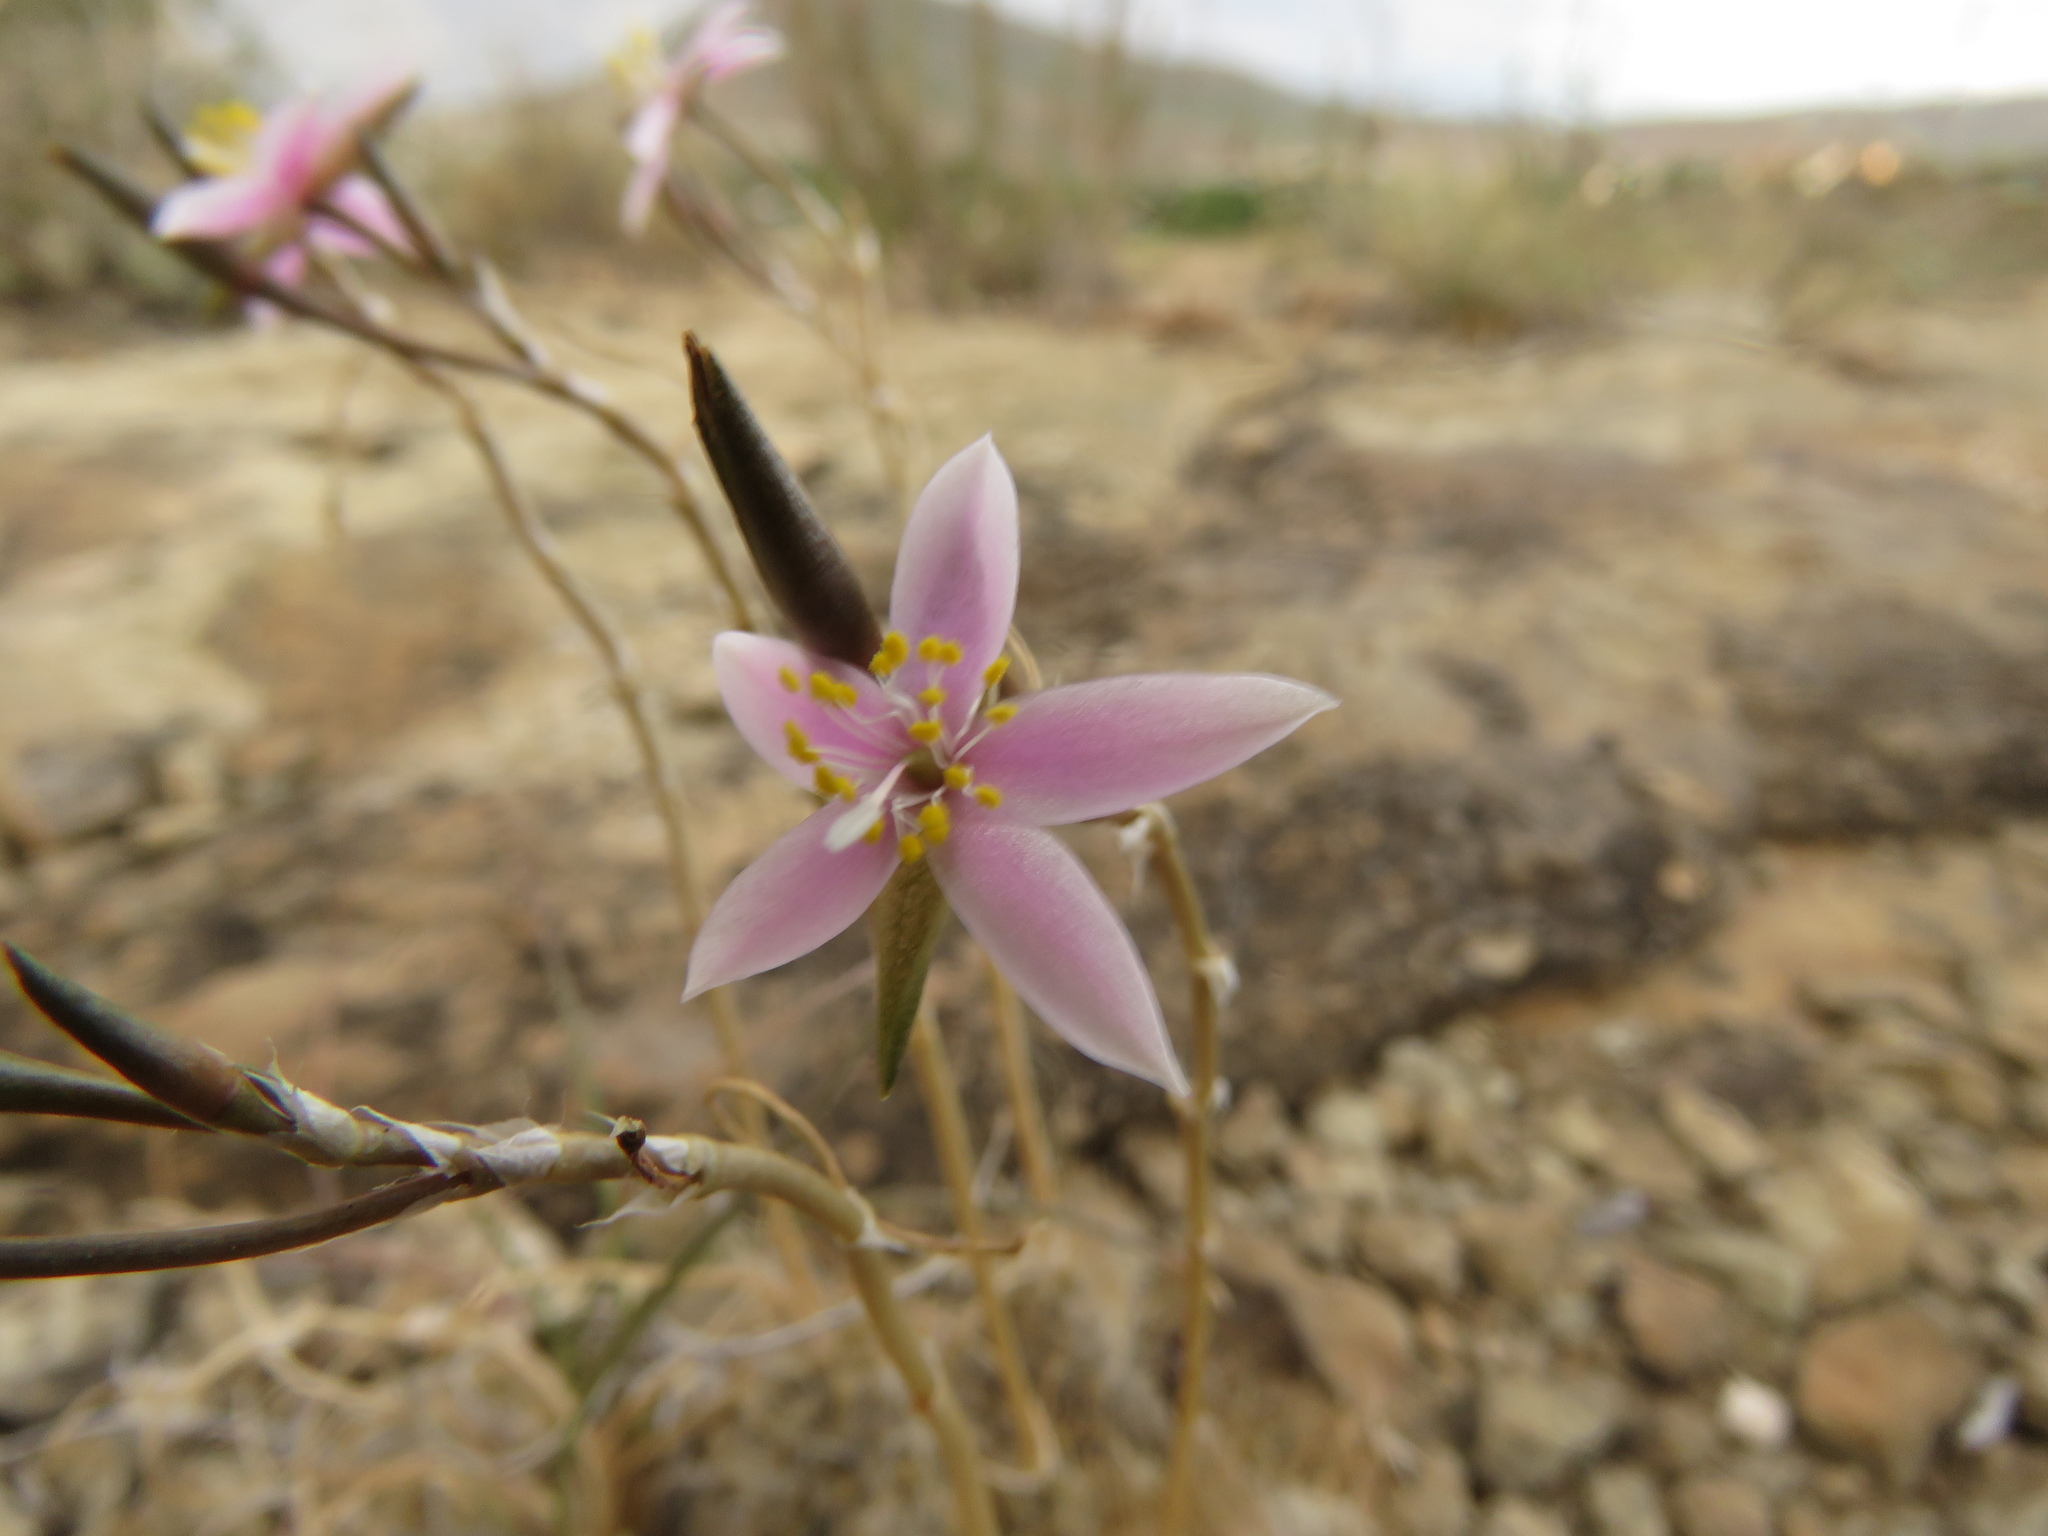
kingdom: Plantae
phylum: Tracheophyta
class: Magnoliopsida
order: Caryophyllales
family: Anacampserotaceae
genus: Anacampseros
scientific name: Anacampseros filamentosa
